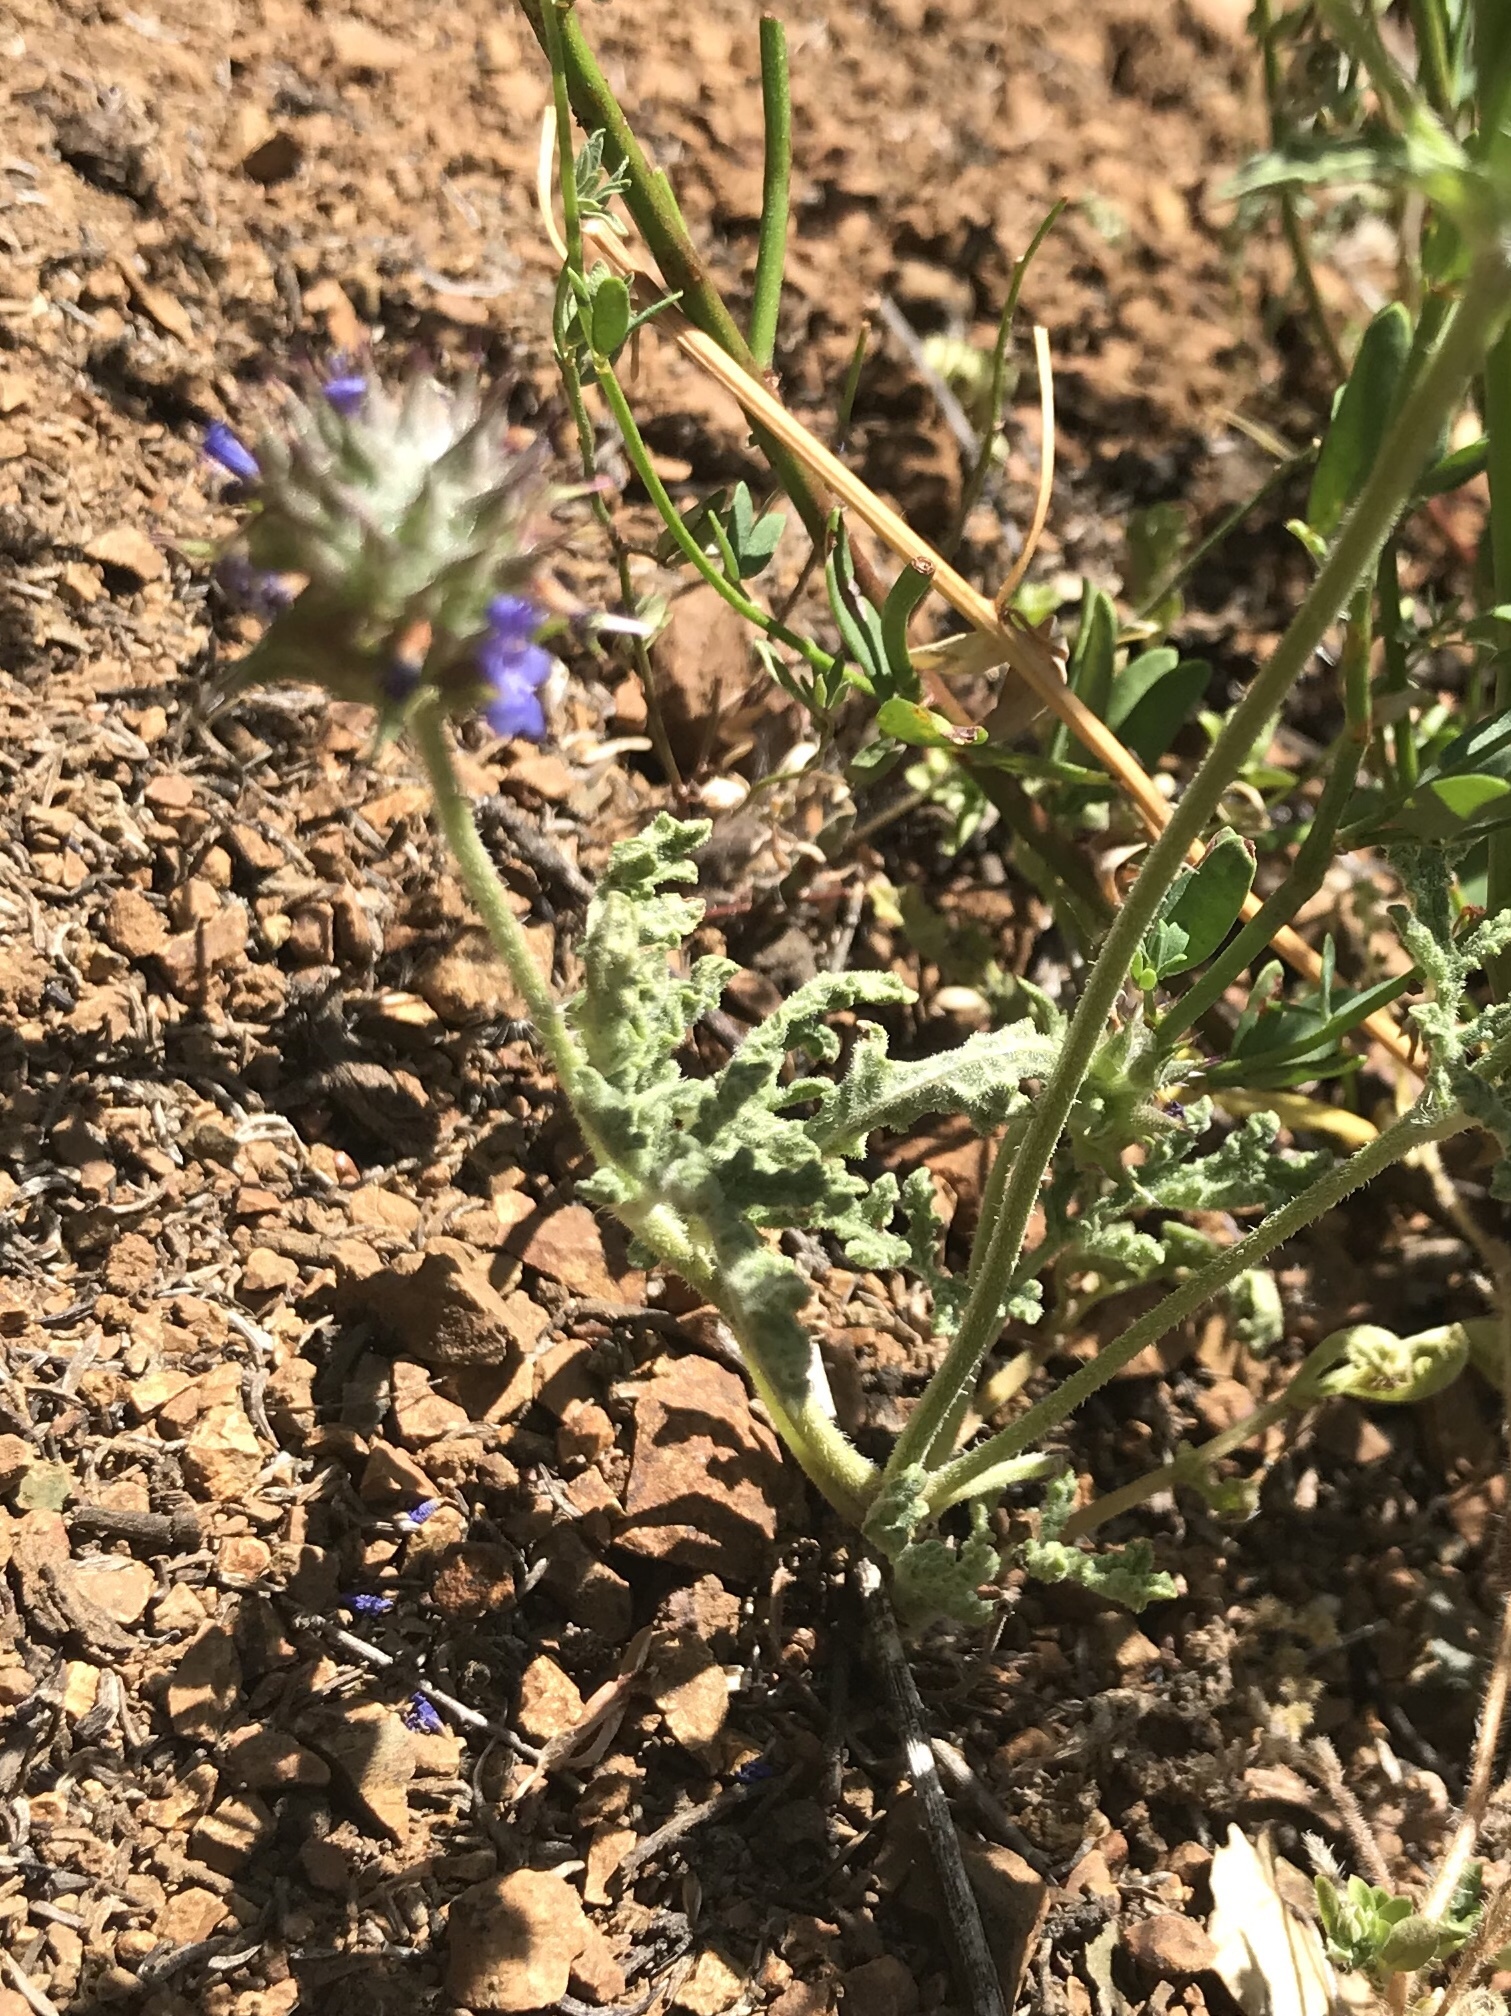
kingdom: Plantae
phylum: Tracheophyta
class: Magnoliopsida
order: Lamiales
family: Lamiaceae
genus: Salvia
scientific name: Salvia columbariae
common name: Chia
